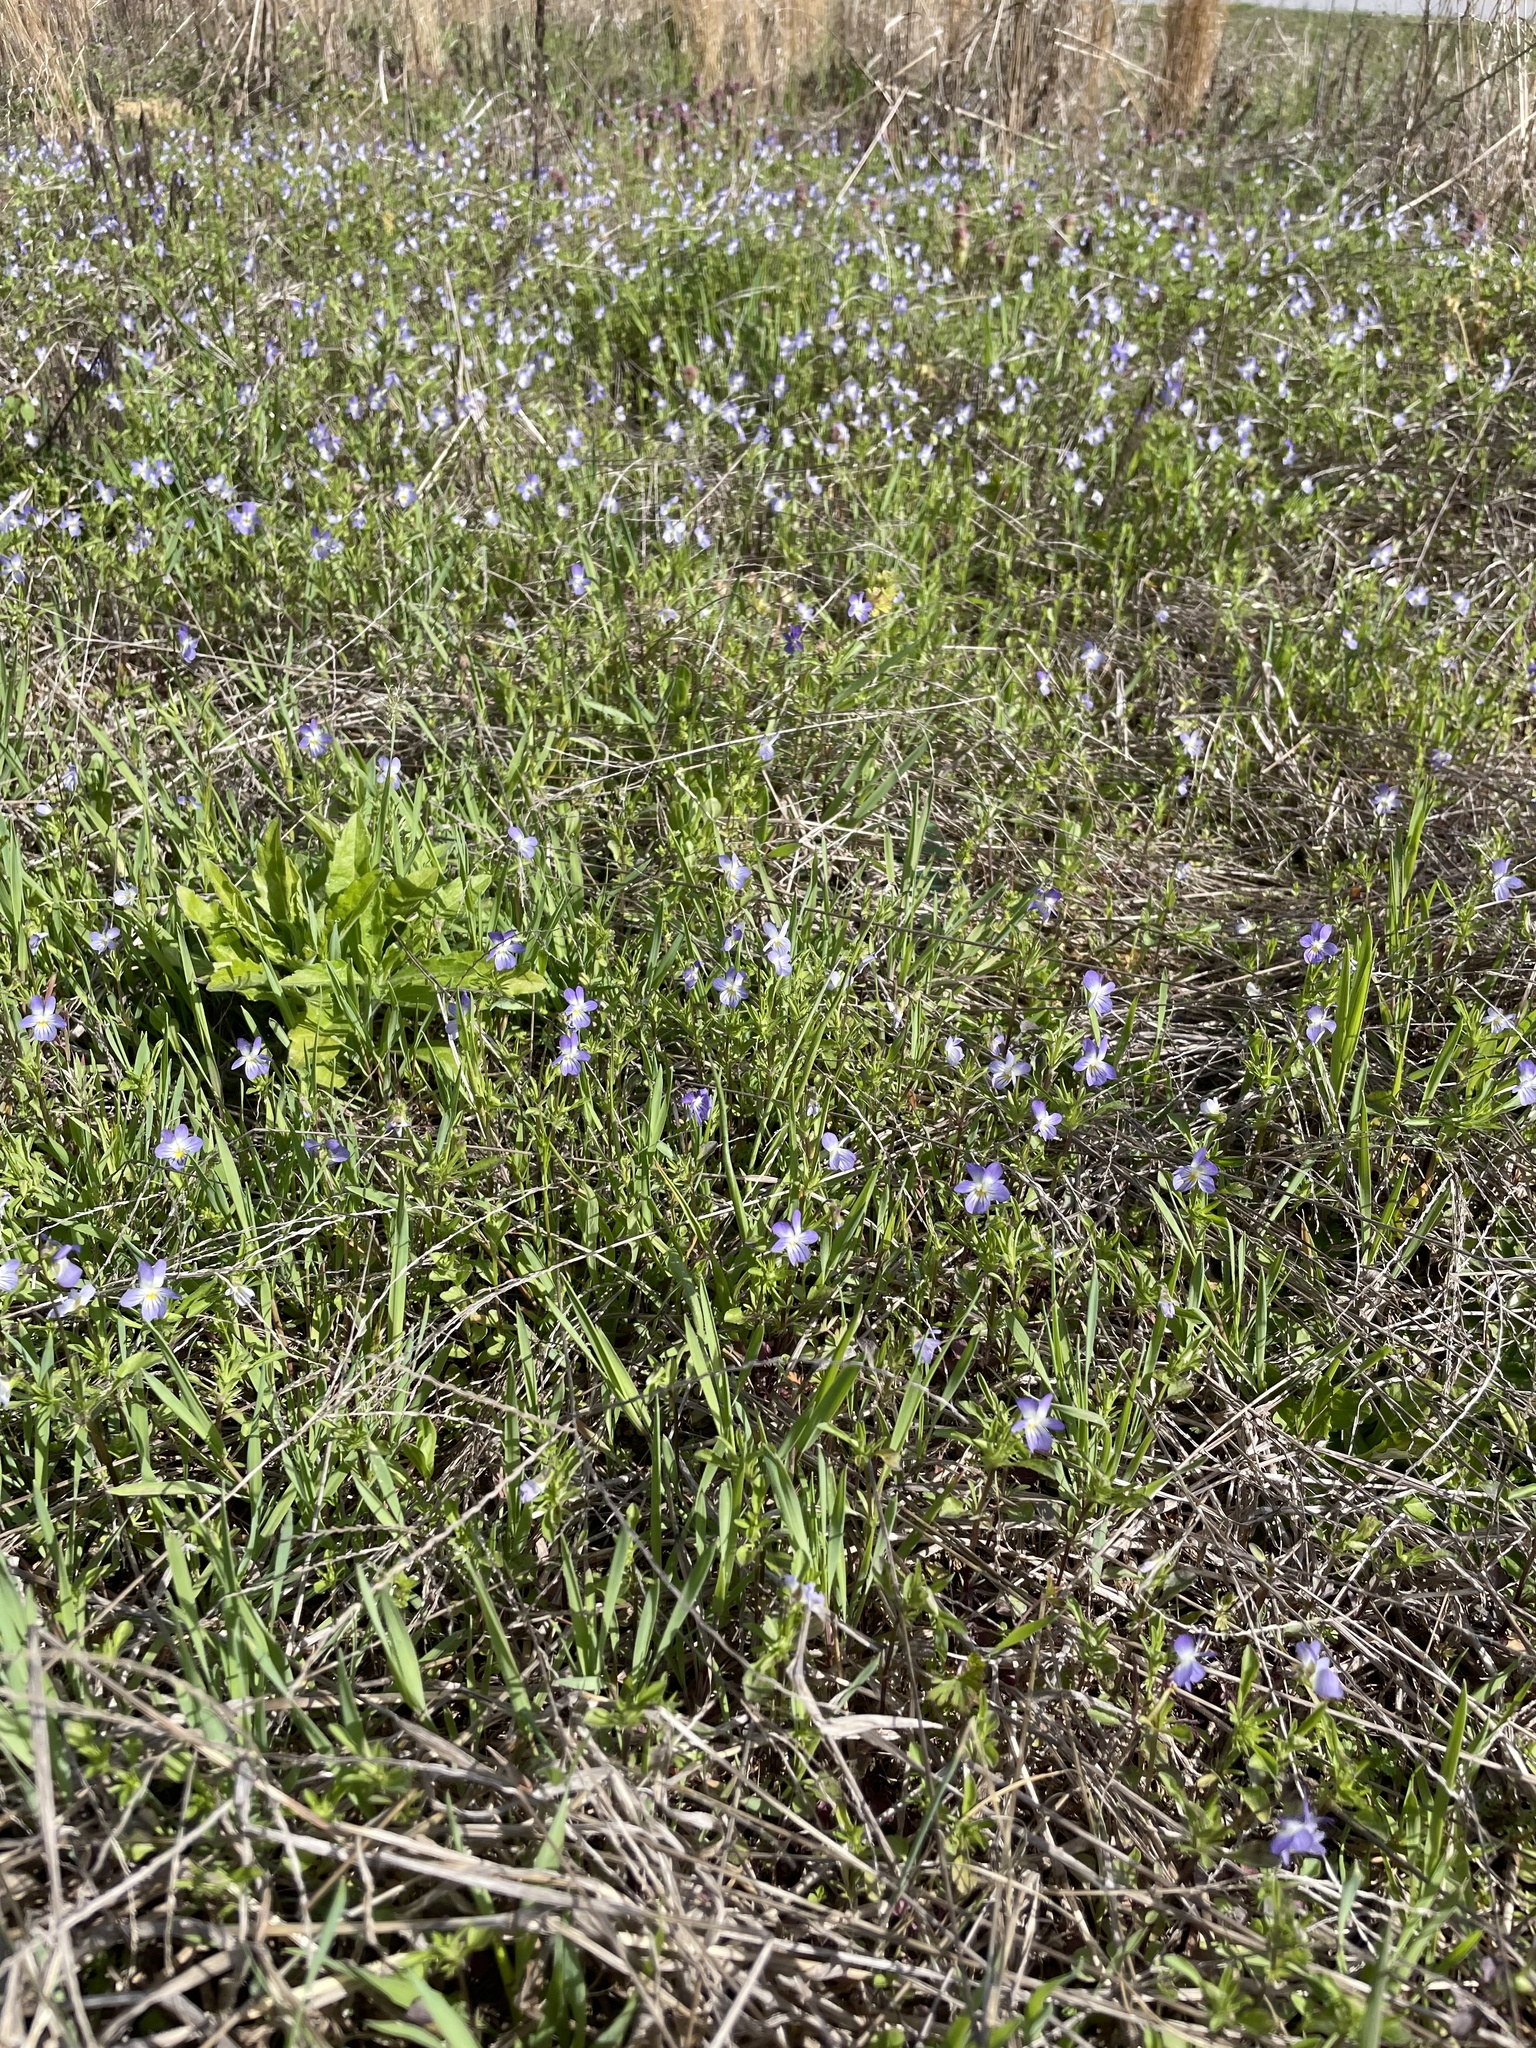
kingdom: Plantae
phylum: Tracheophyta
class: Magnoliopsida
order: Malpighiales
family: Violaceae
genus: Viola
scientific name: Viola rafinesquei
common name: American field pansy
